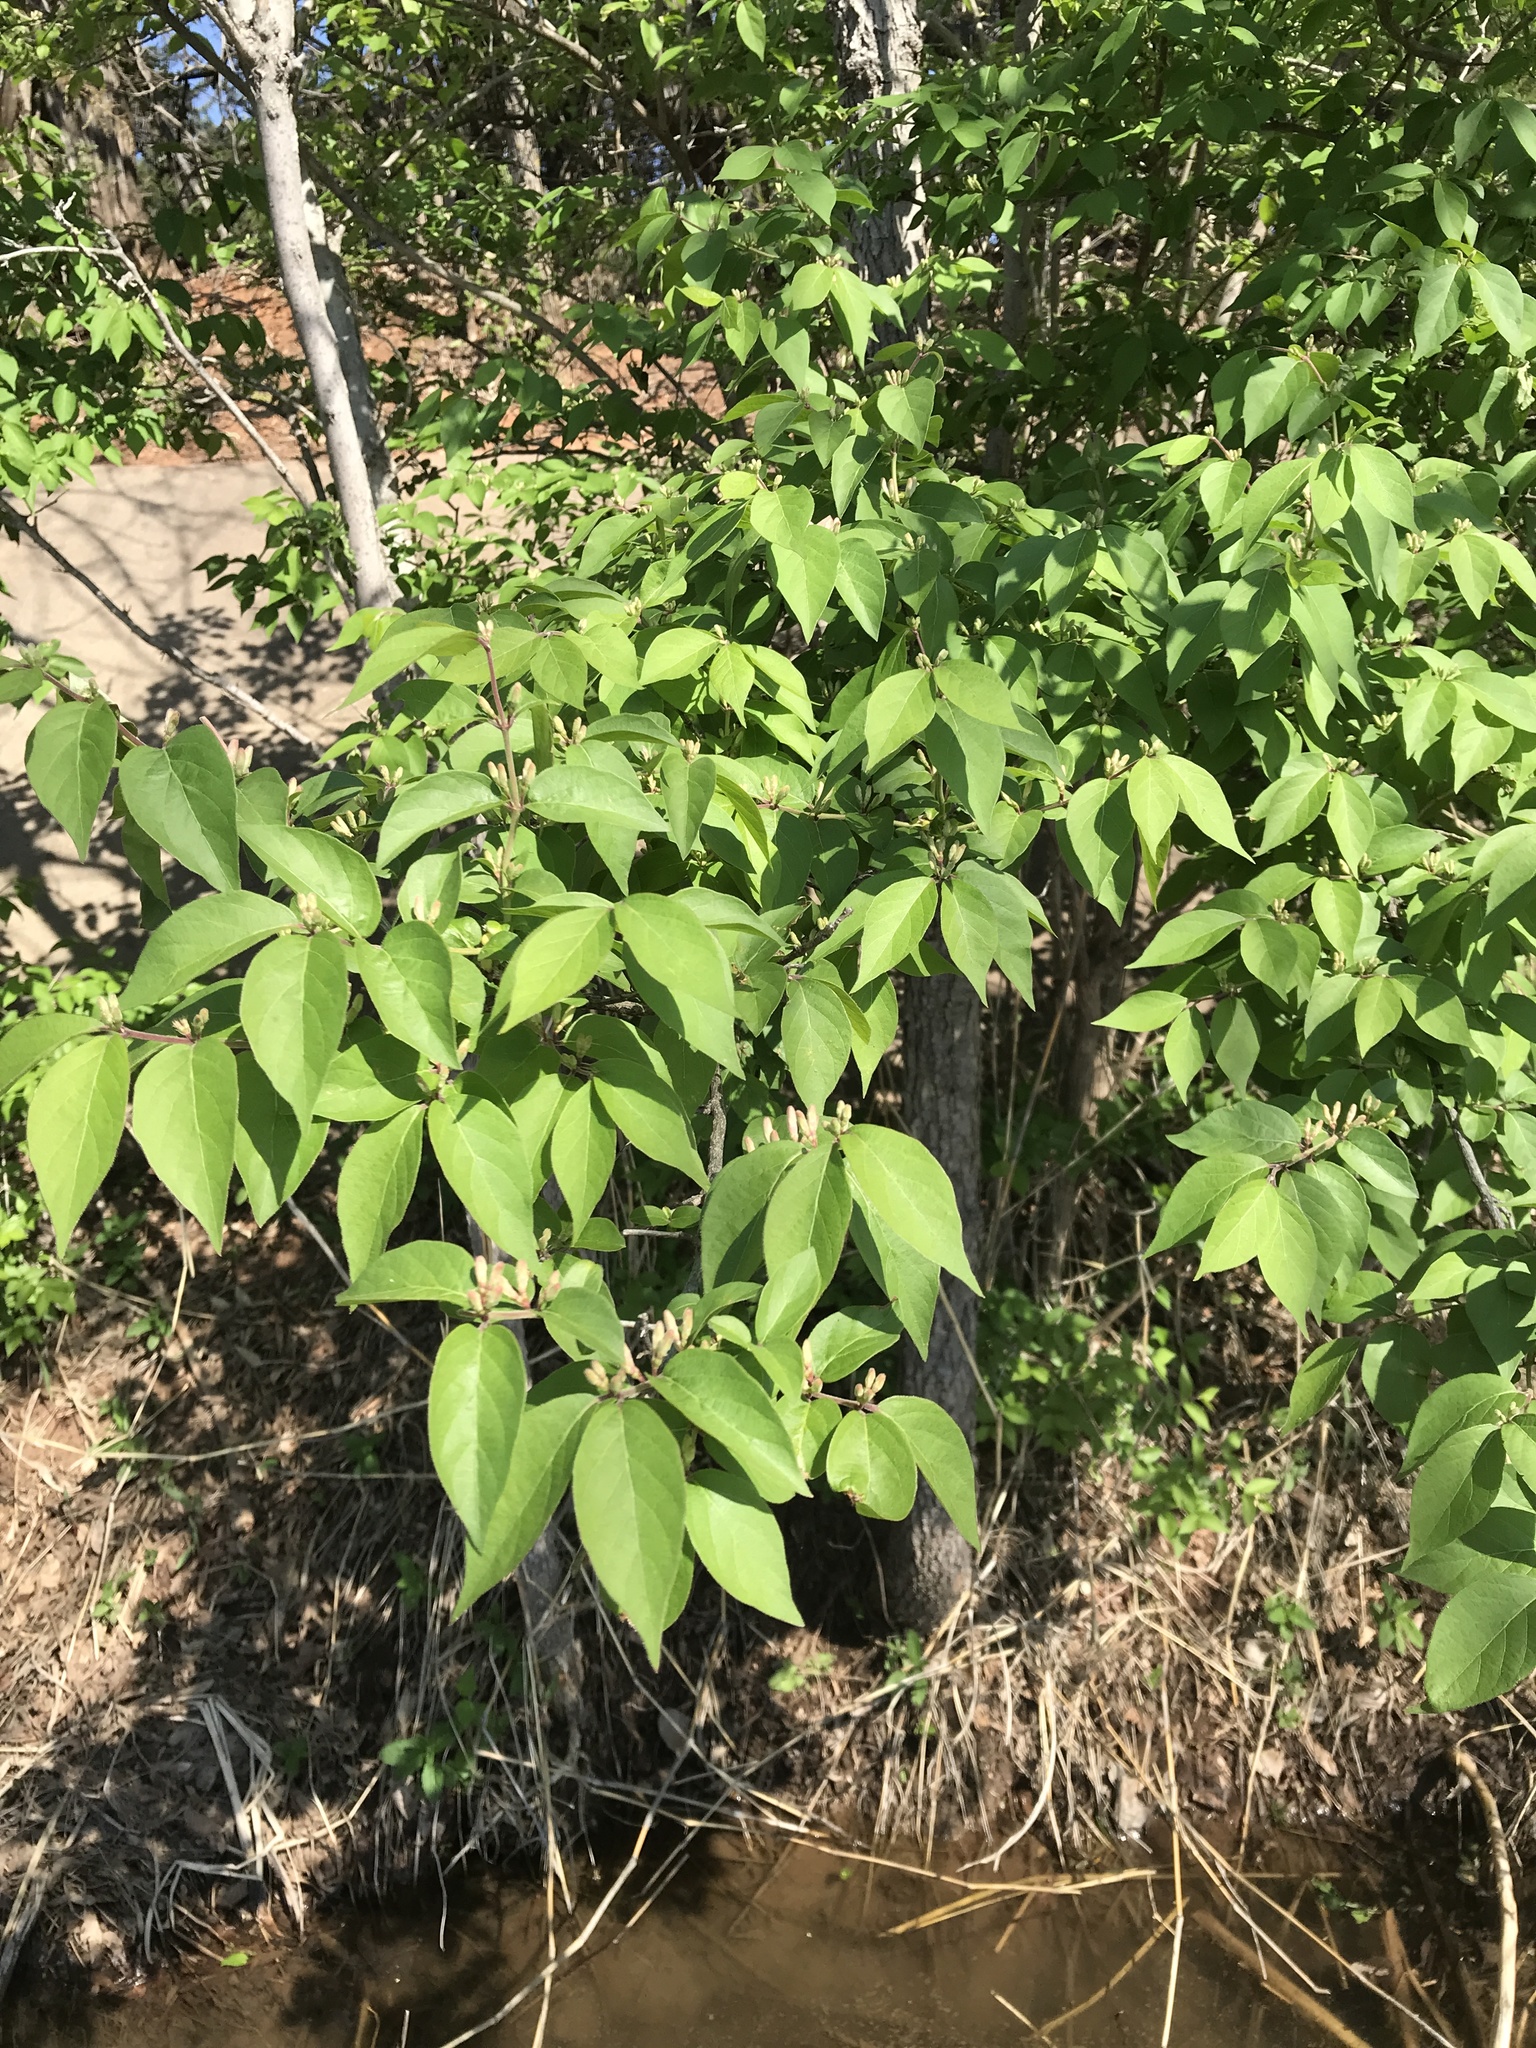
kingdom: Plantae
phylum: Tracheophyta
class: Magnoliopsida
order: Dipsacales
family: Caprifoliaceae
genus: Lonicera
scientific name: Lonicera maackii
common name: Amur honeysuckle
